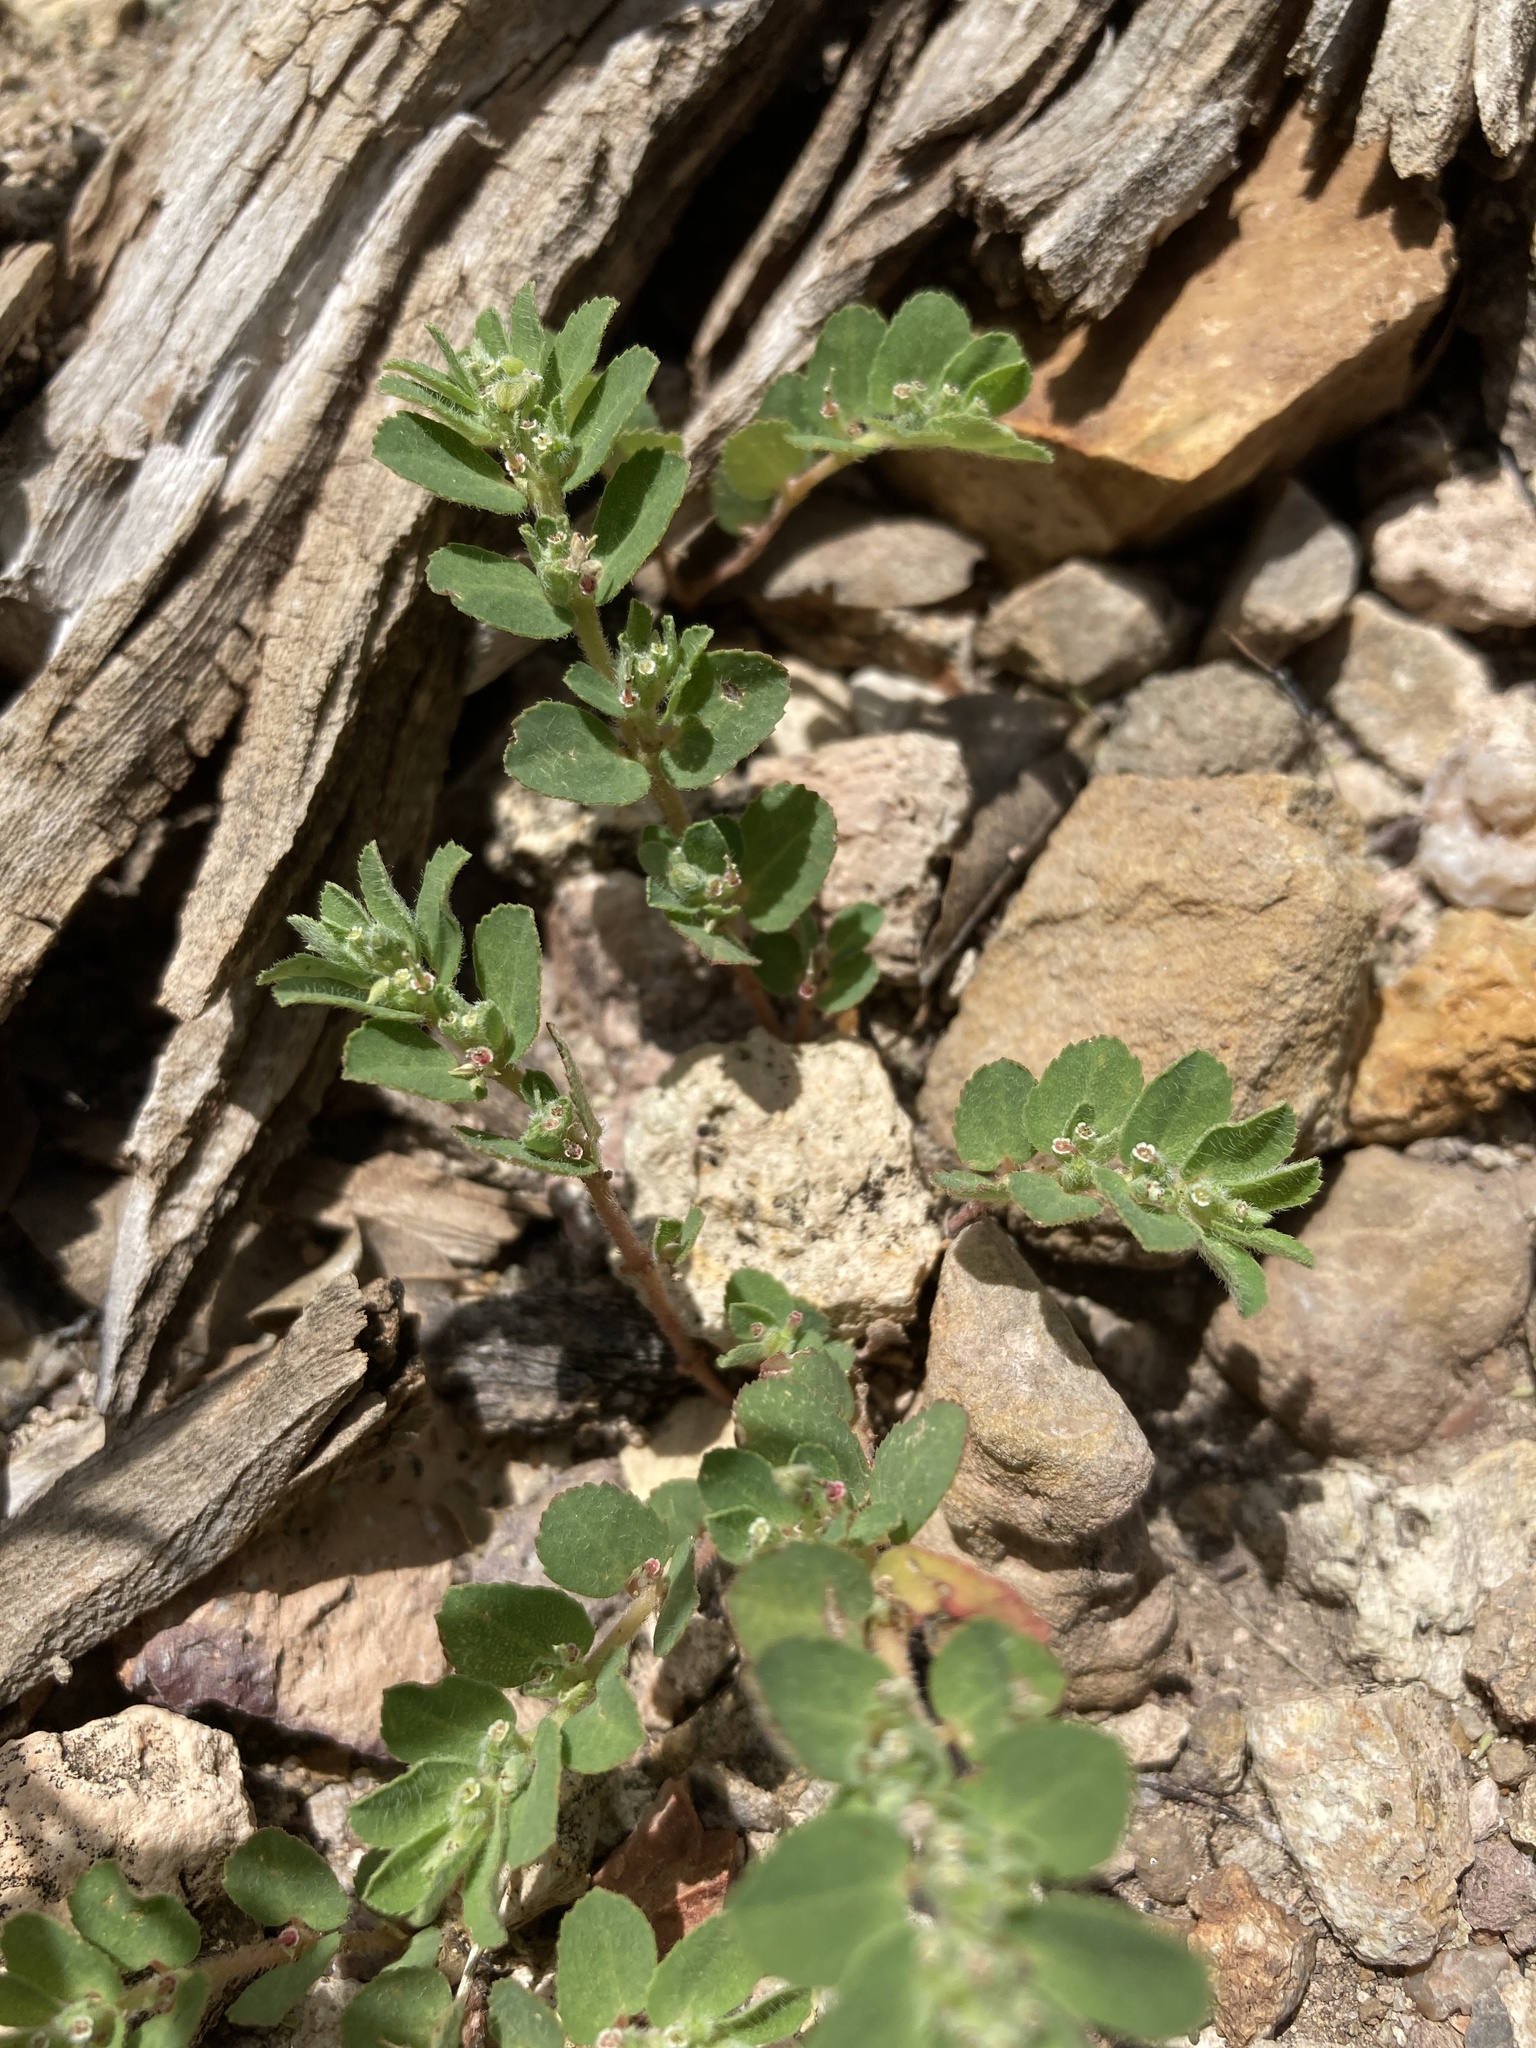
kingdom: Plantae
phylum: Tracheophyta
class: Magnoliopsida
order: Malpighiales
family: Euphorbiaceae
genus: Euphorbia
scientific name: Euphorbia stictospora
